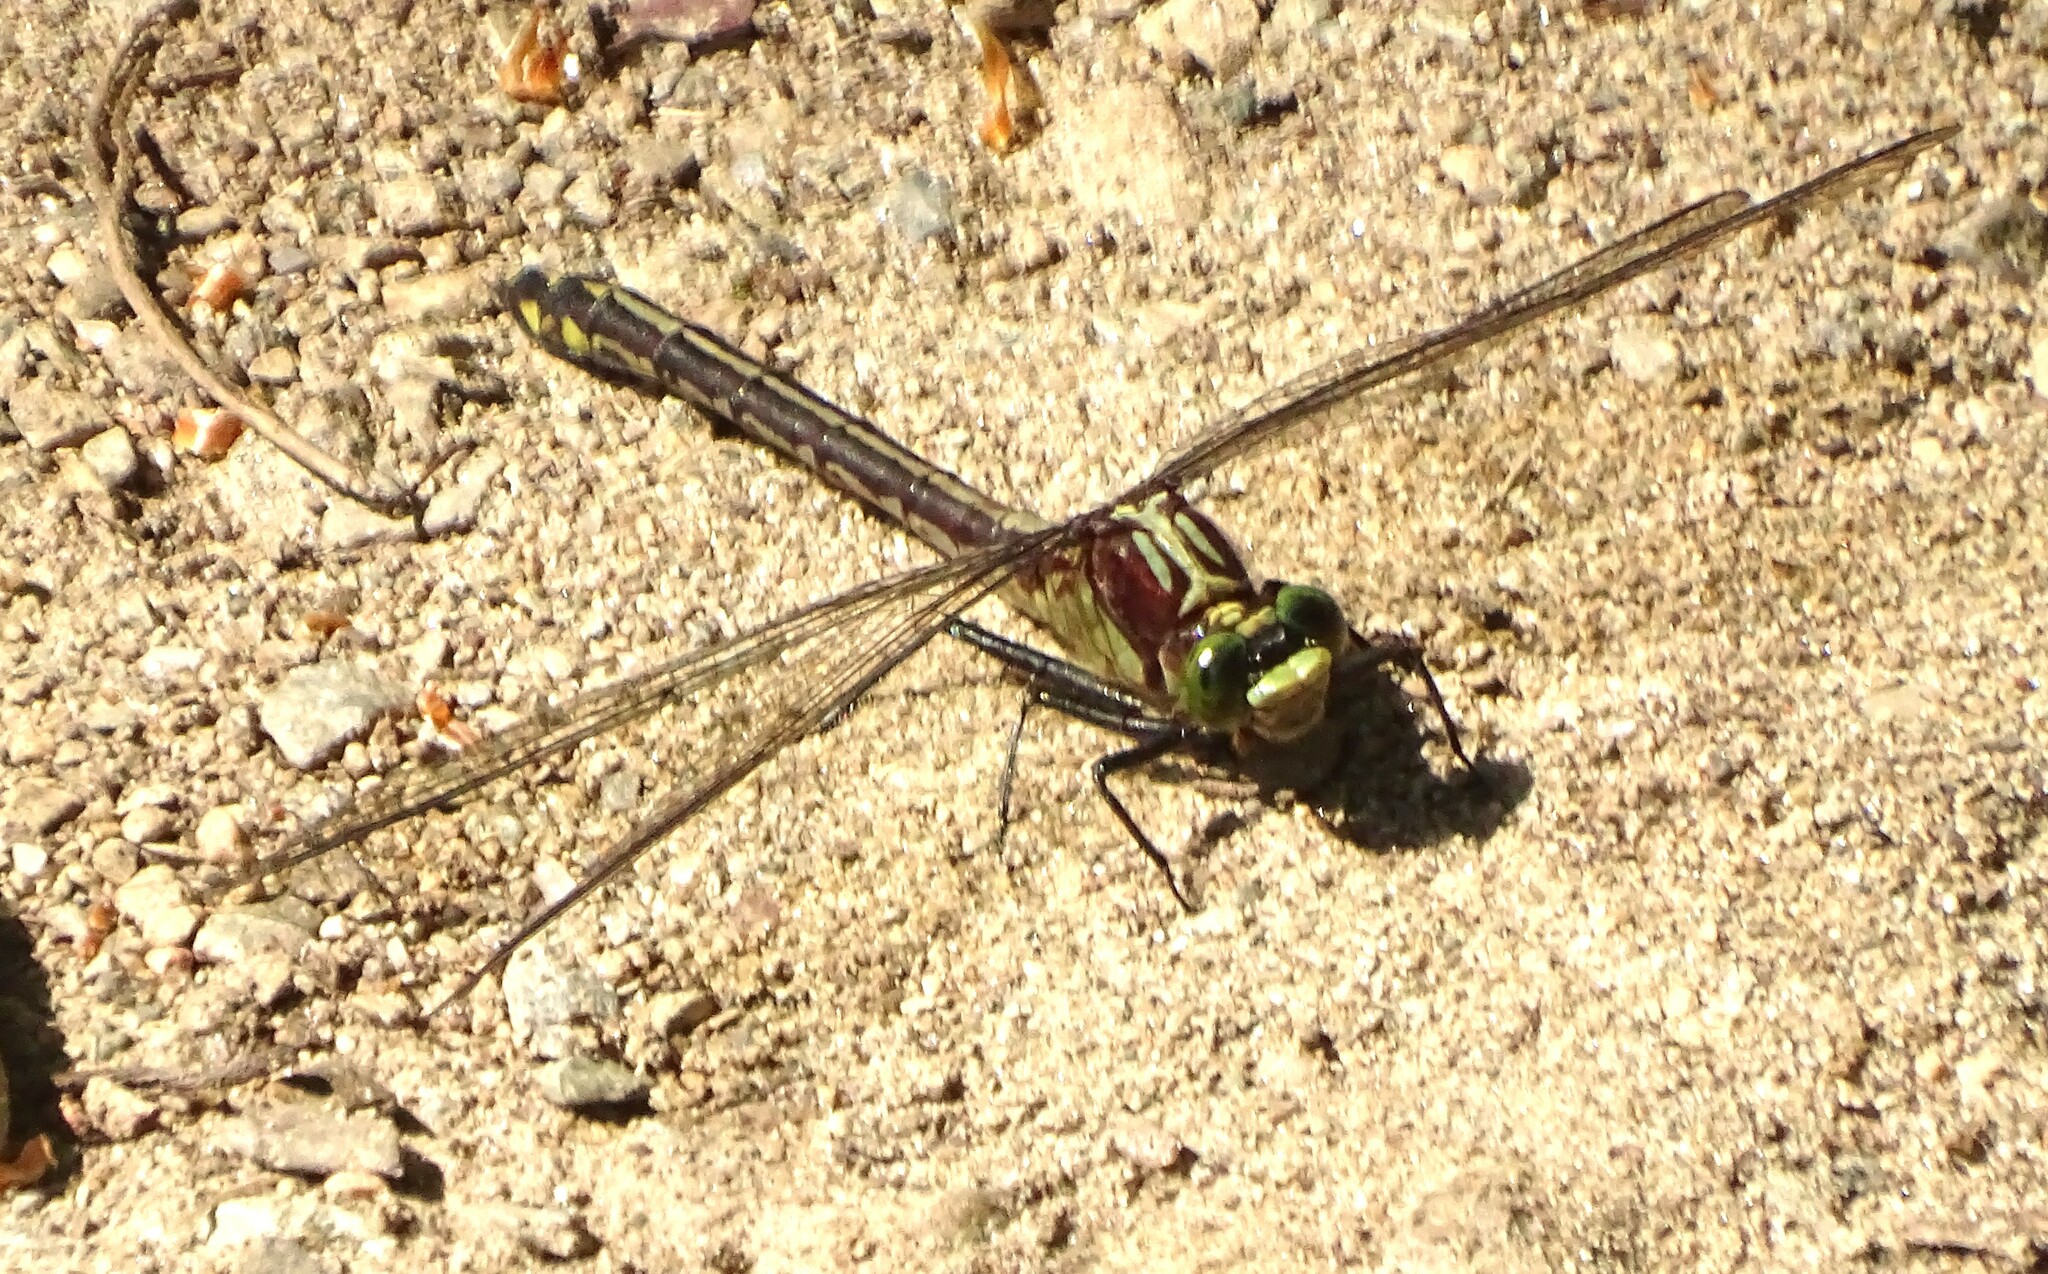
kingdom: Animalia
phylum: Arthropoda
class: Insecta
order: Odonata
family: Gomphidae
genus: Dromogomphus
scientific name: Dromogomphus spinosus
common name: Black-shouldered spinyleg
